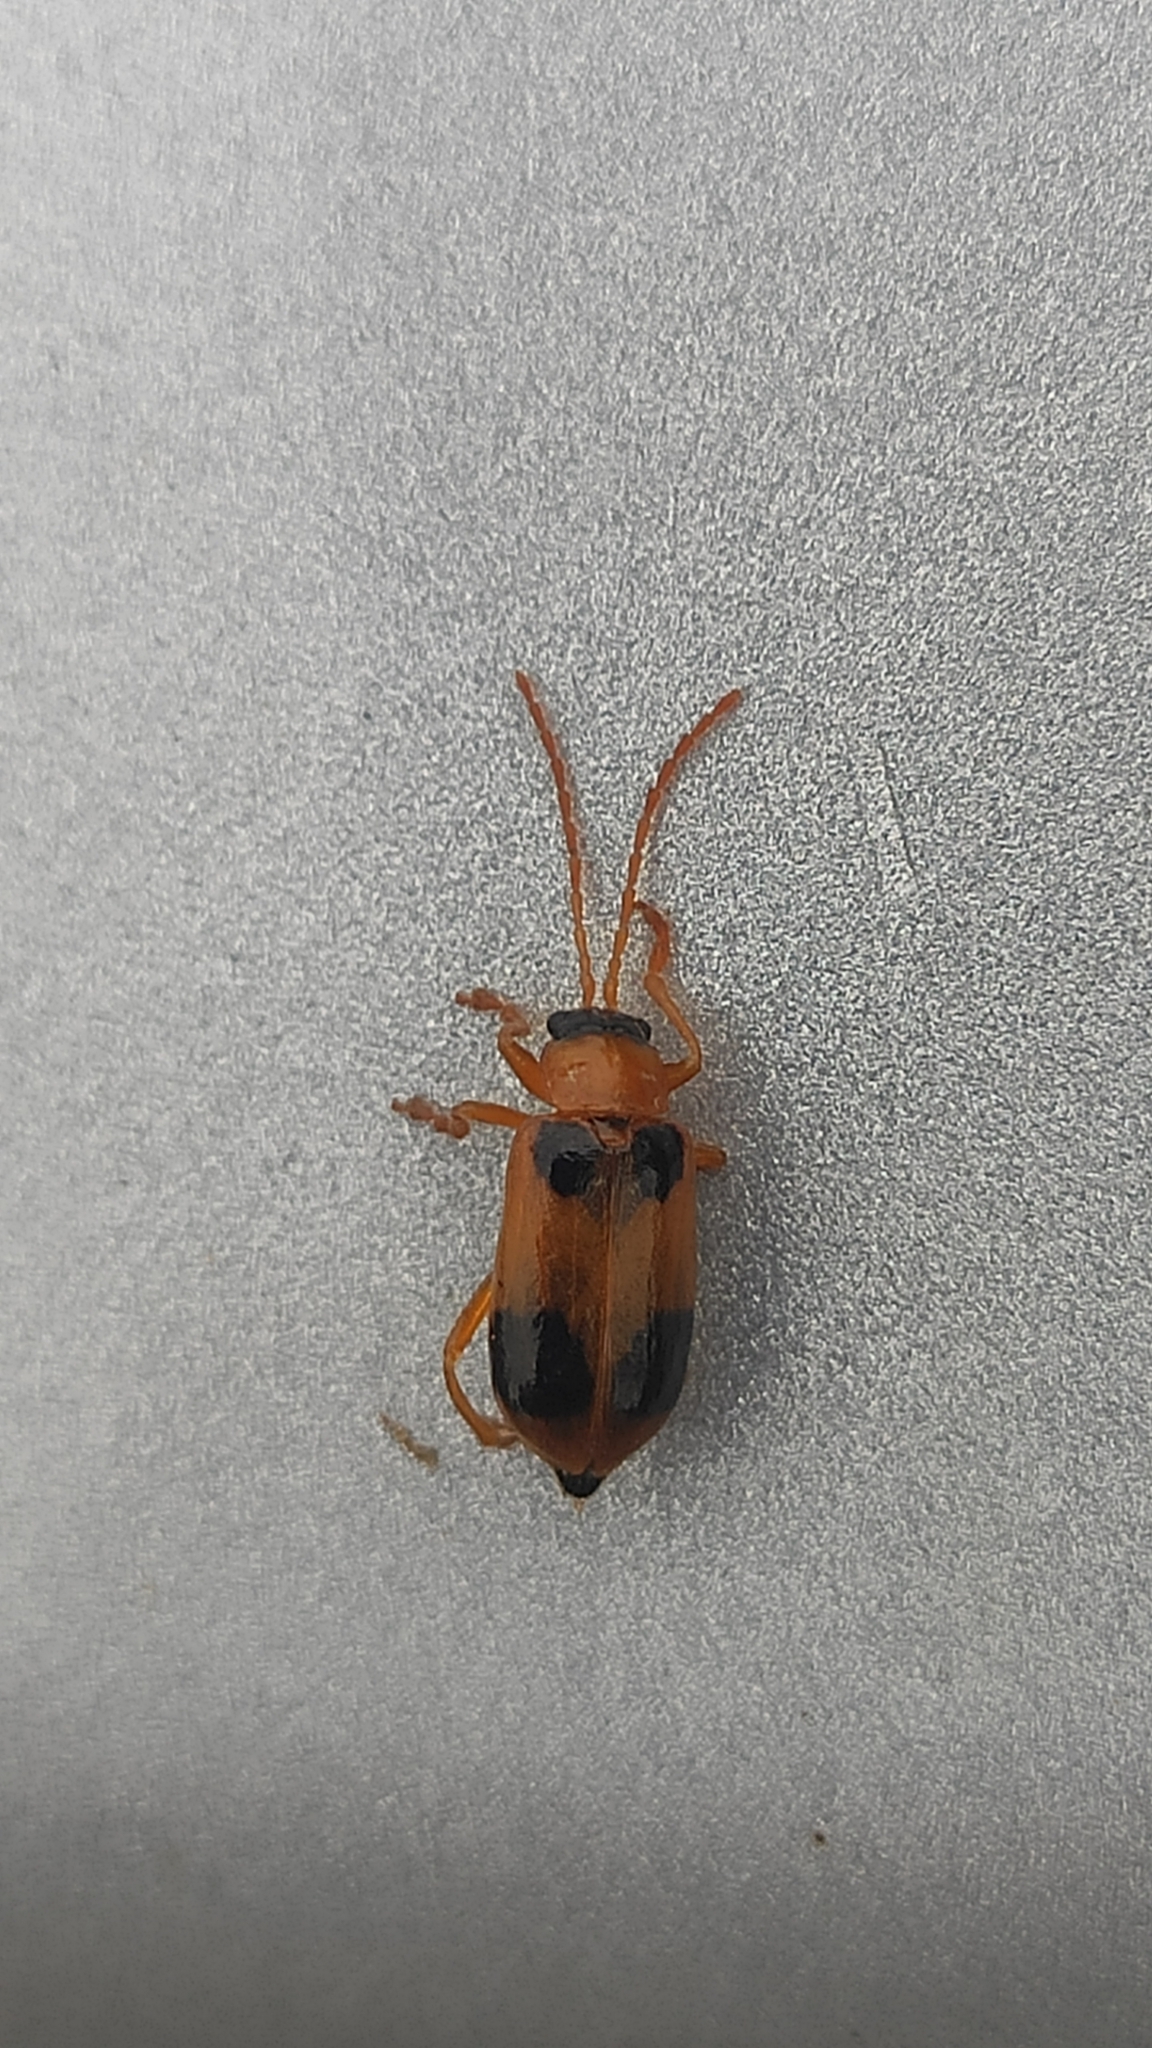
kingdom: Animalia
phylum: Arthropoda
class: Insecta
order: Coleoptera
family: Chrysomelidae
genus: Phyllobrotica
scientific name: Phyllobrotica quadrimaculata
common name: Skullcap leaf beetle
